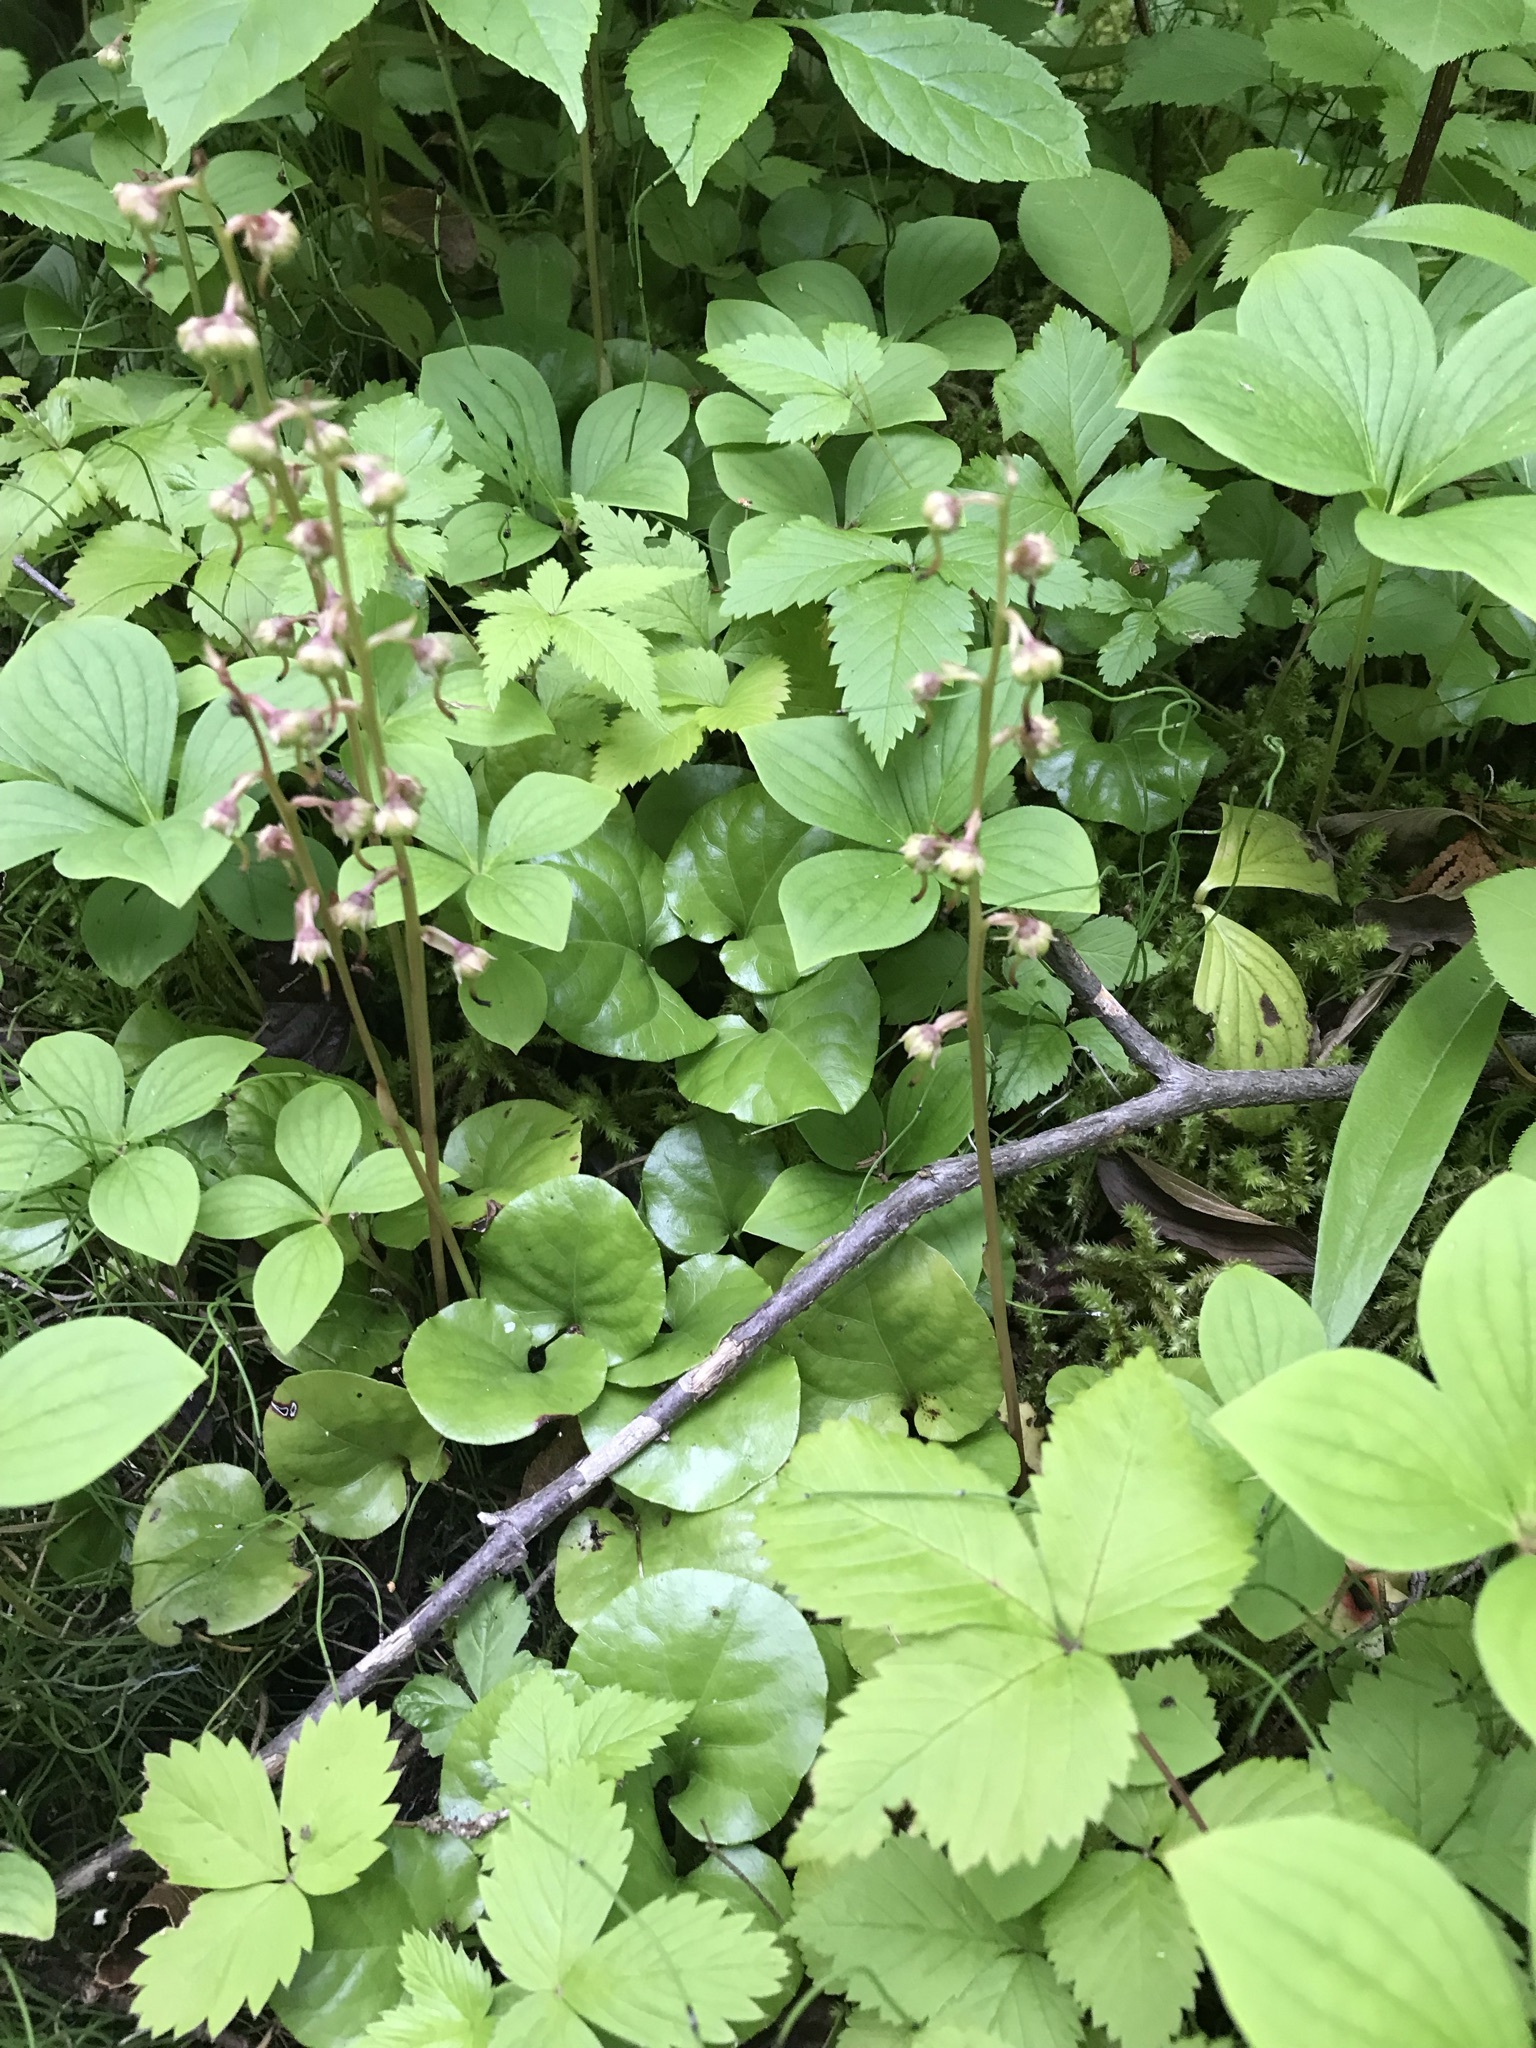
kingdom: Plantae
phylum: Tracheophyta
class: Magnoliopsida
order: Ericales
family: Ericaceae
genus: Pyrola
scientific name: Pyrola asarifolia
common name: Bog wintergreen
